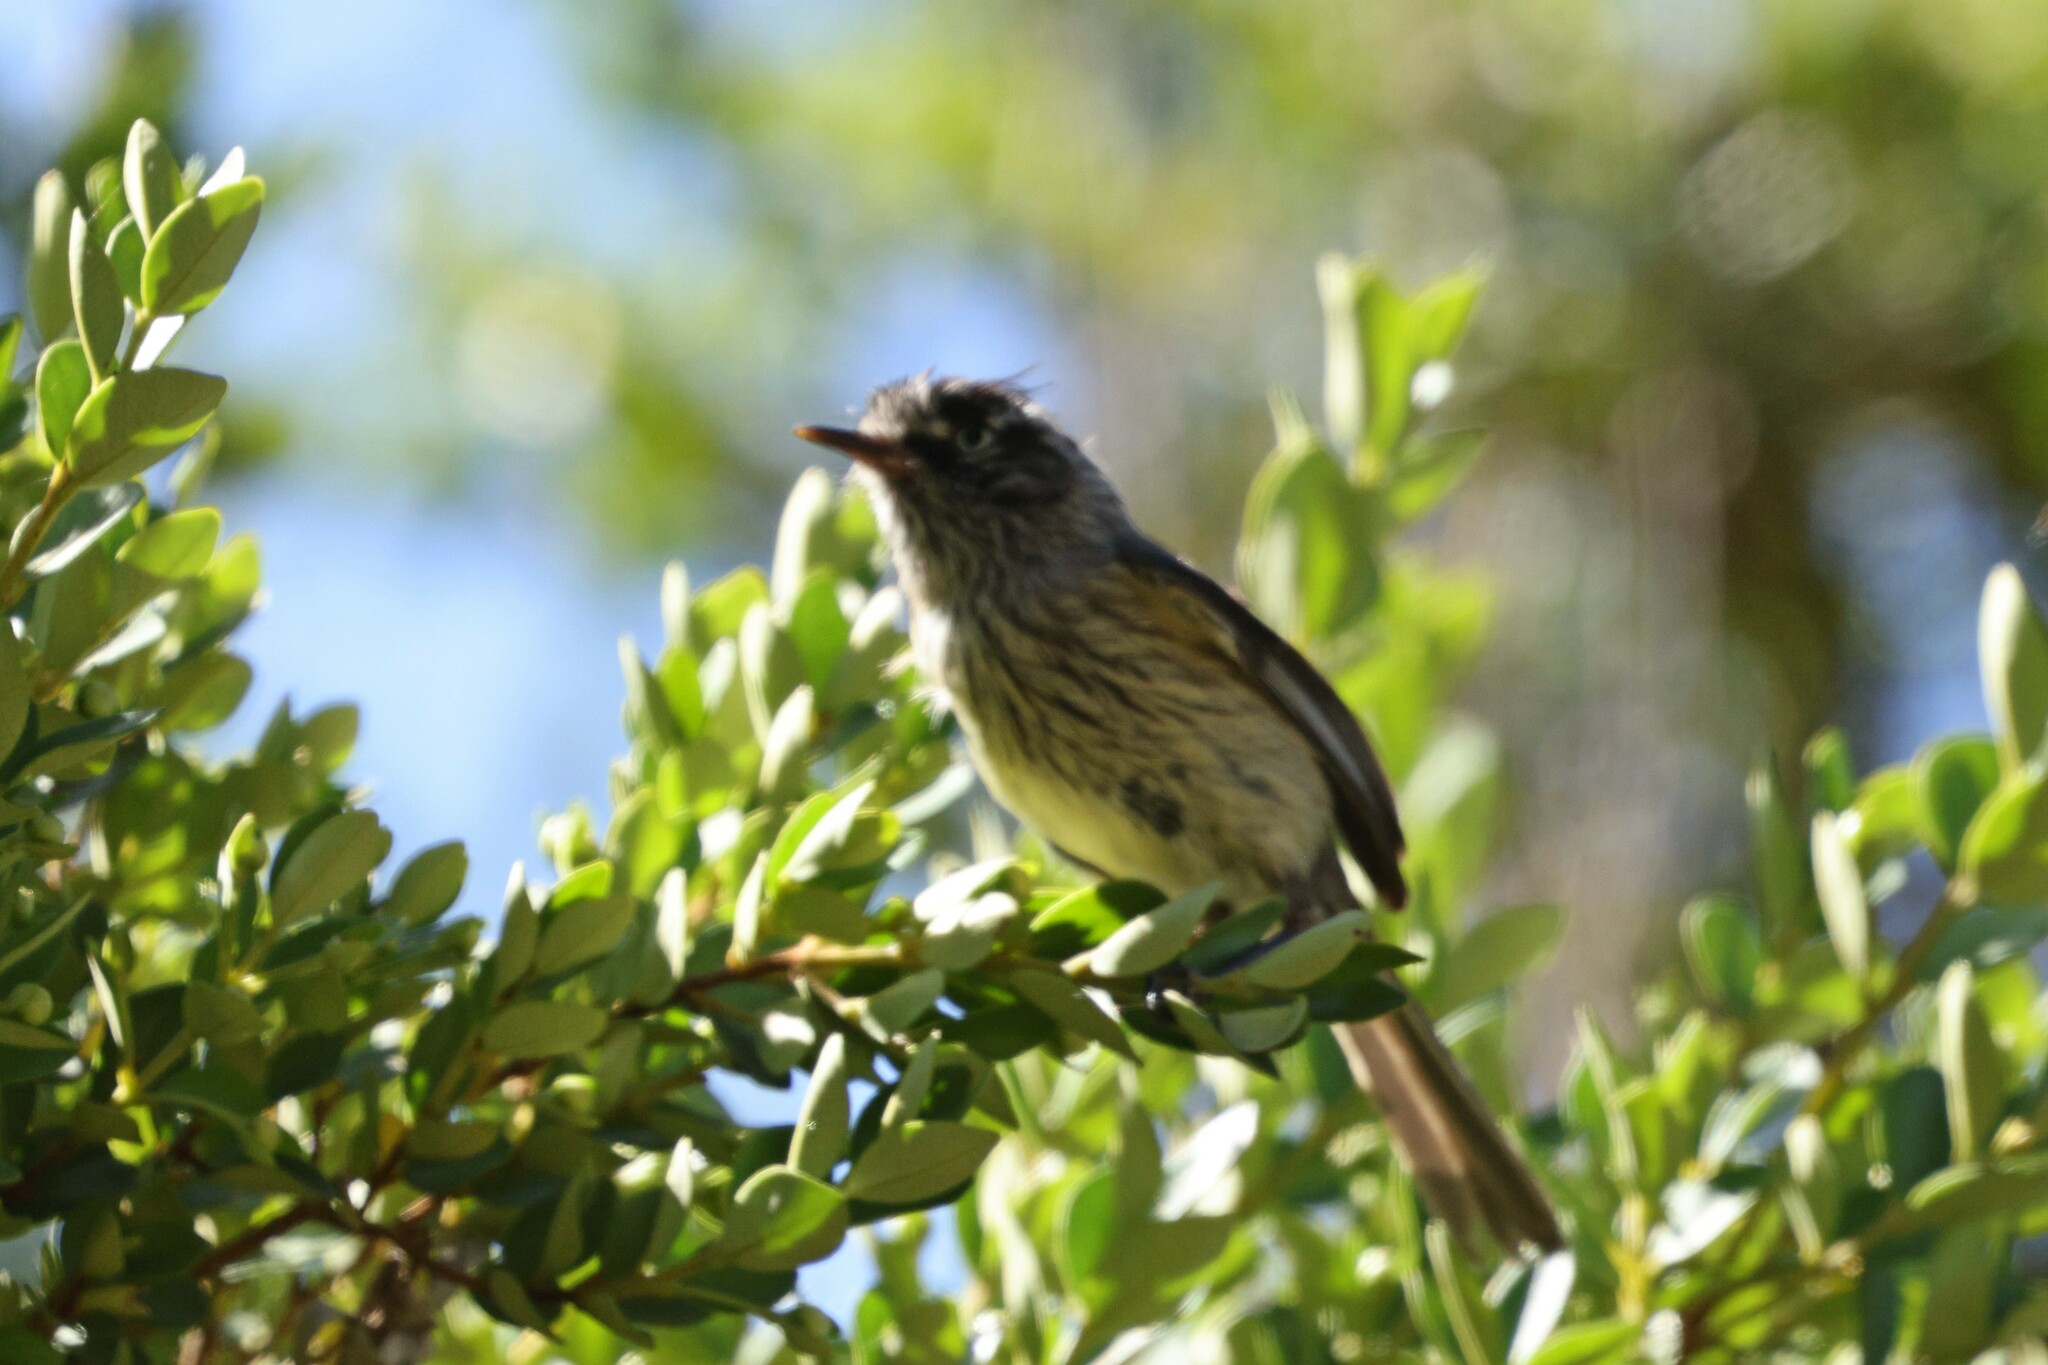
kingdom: Animalia
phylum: Chordata
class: Aves
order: Passeriformes
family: Tyrannidae
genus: Anairetes
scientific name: Anairetes parulus
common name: Tufted tit-tyrant
